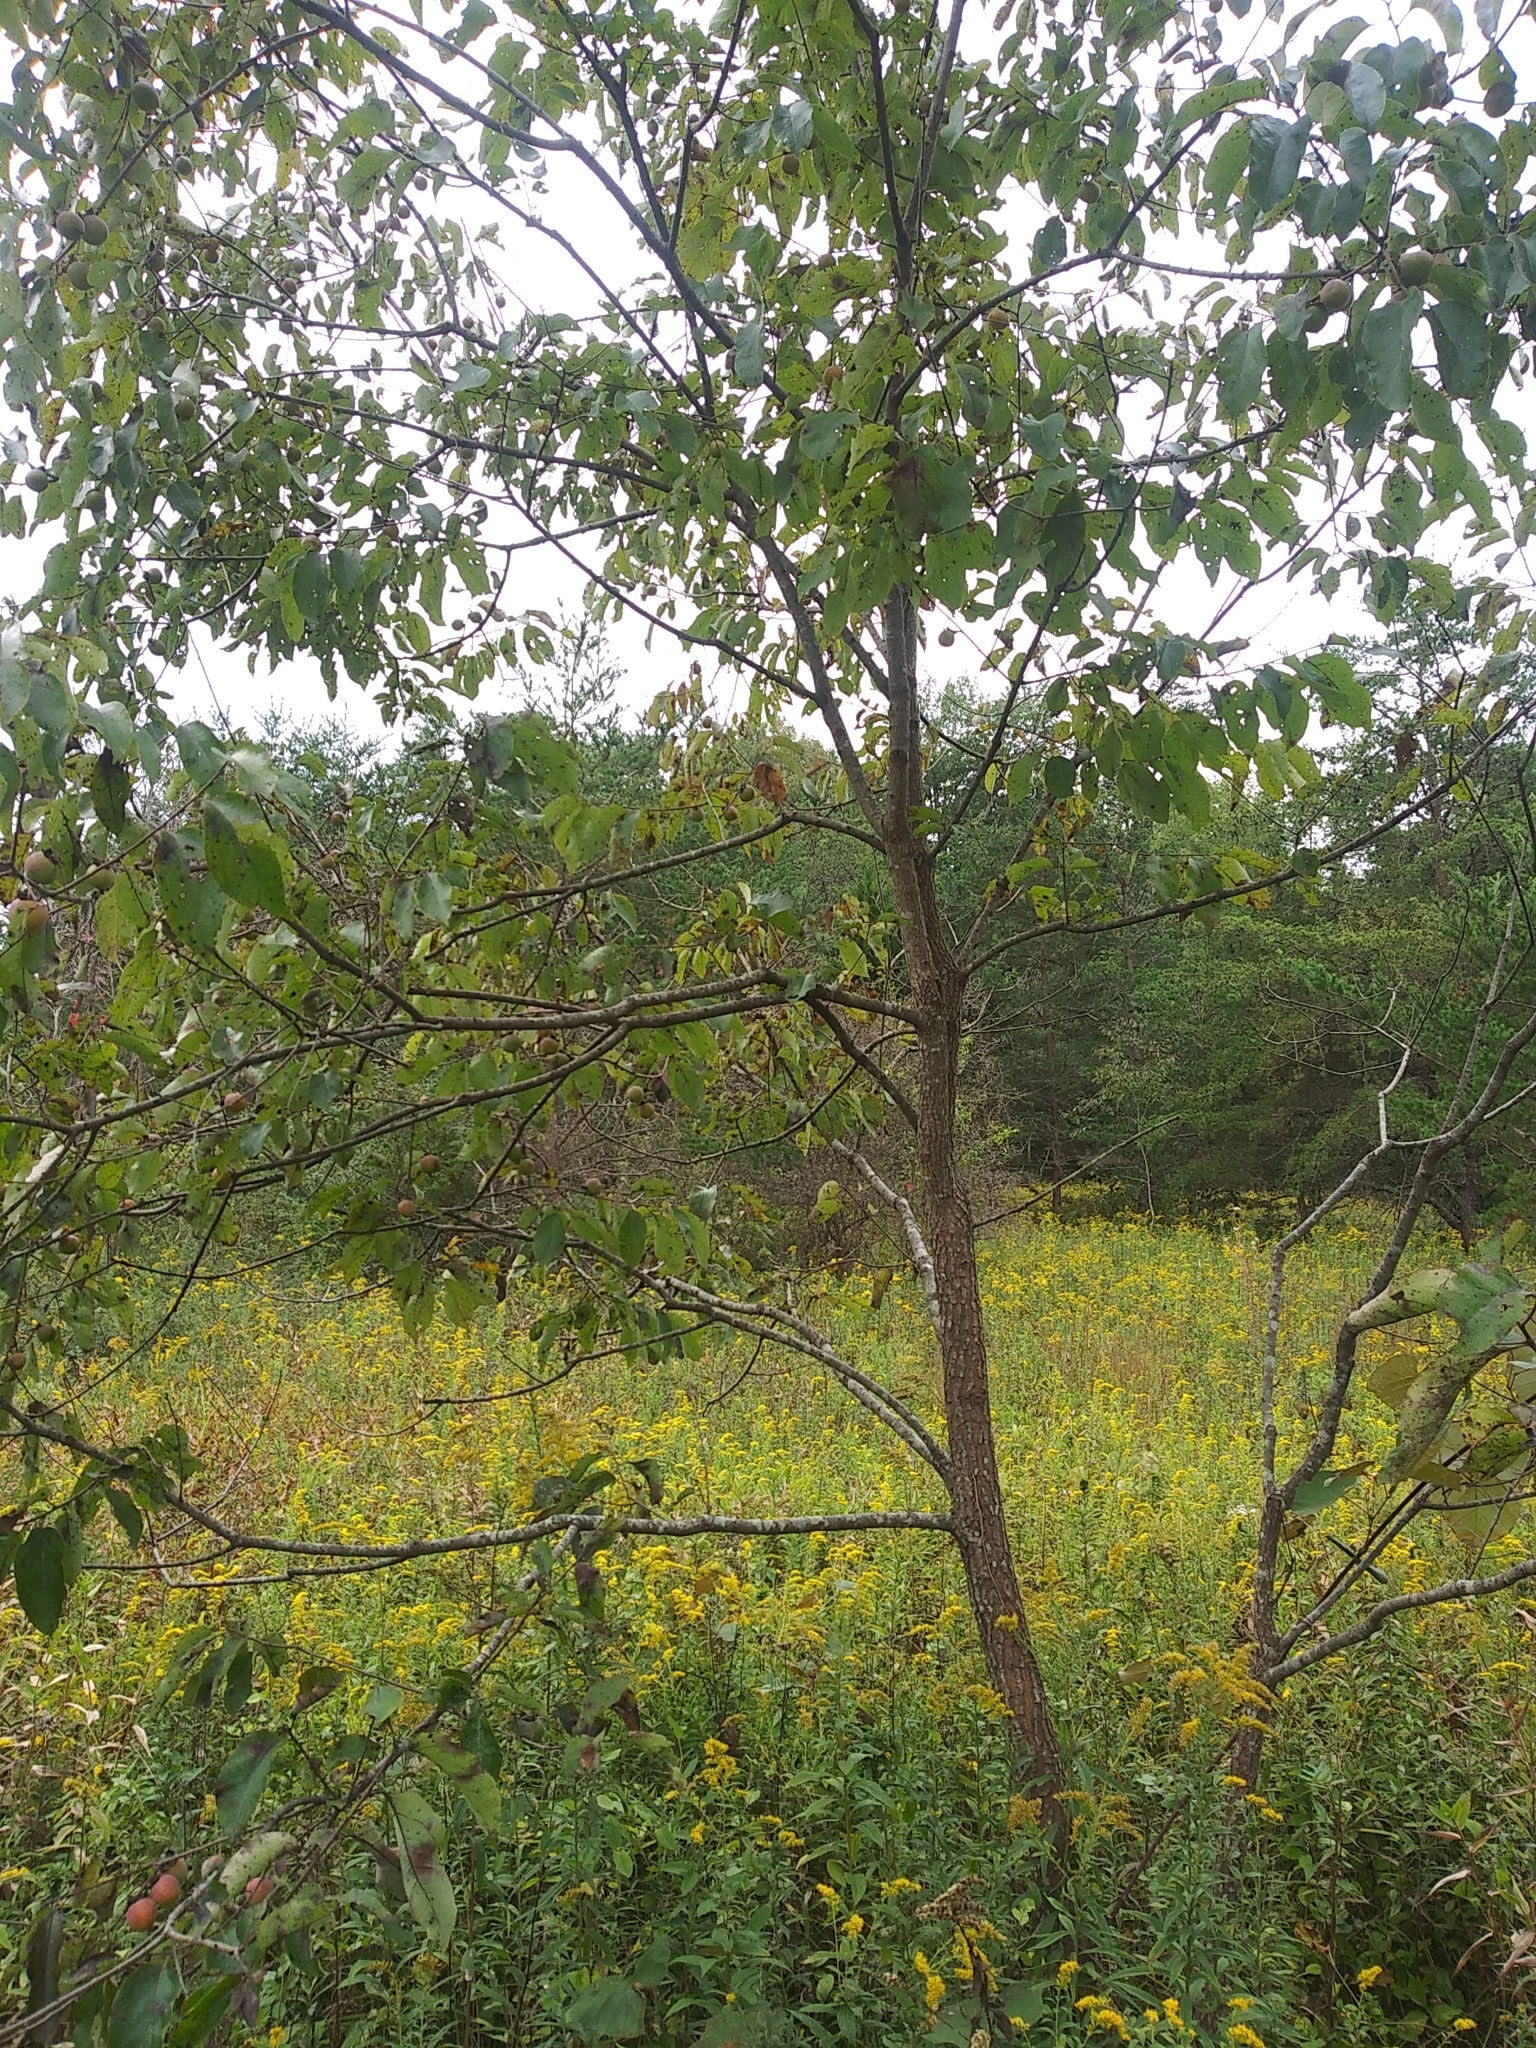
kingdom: Plantae
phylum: Tracheophyta
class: Magnoliopsida
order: Ericales
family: Ebenaceae
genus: Diospyros
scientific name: Diospyros virginiana
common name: Persimmon
